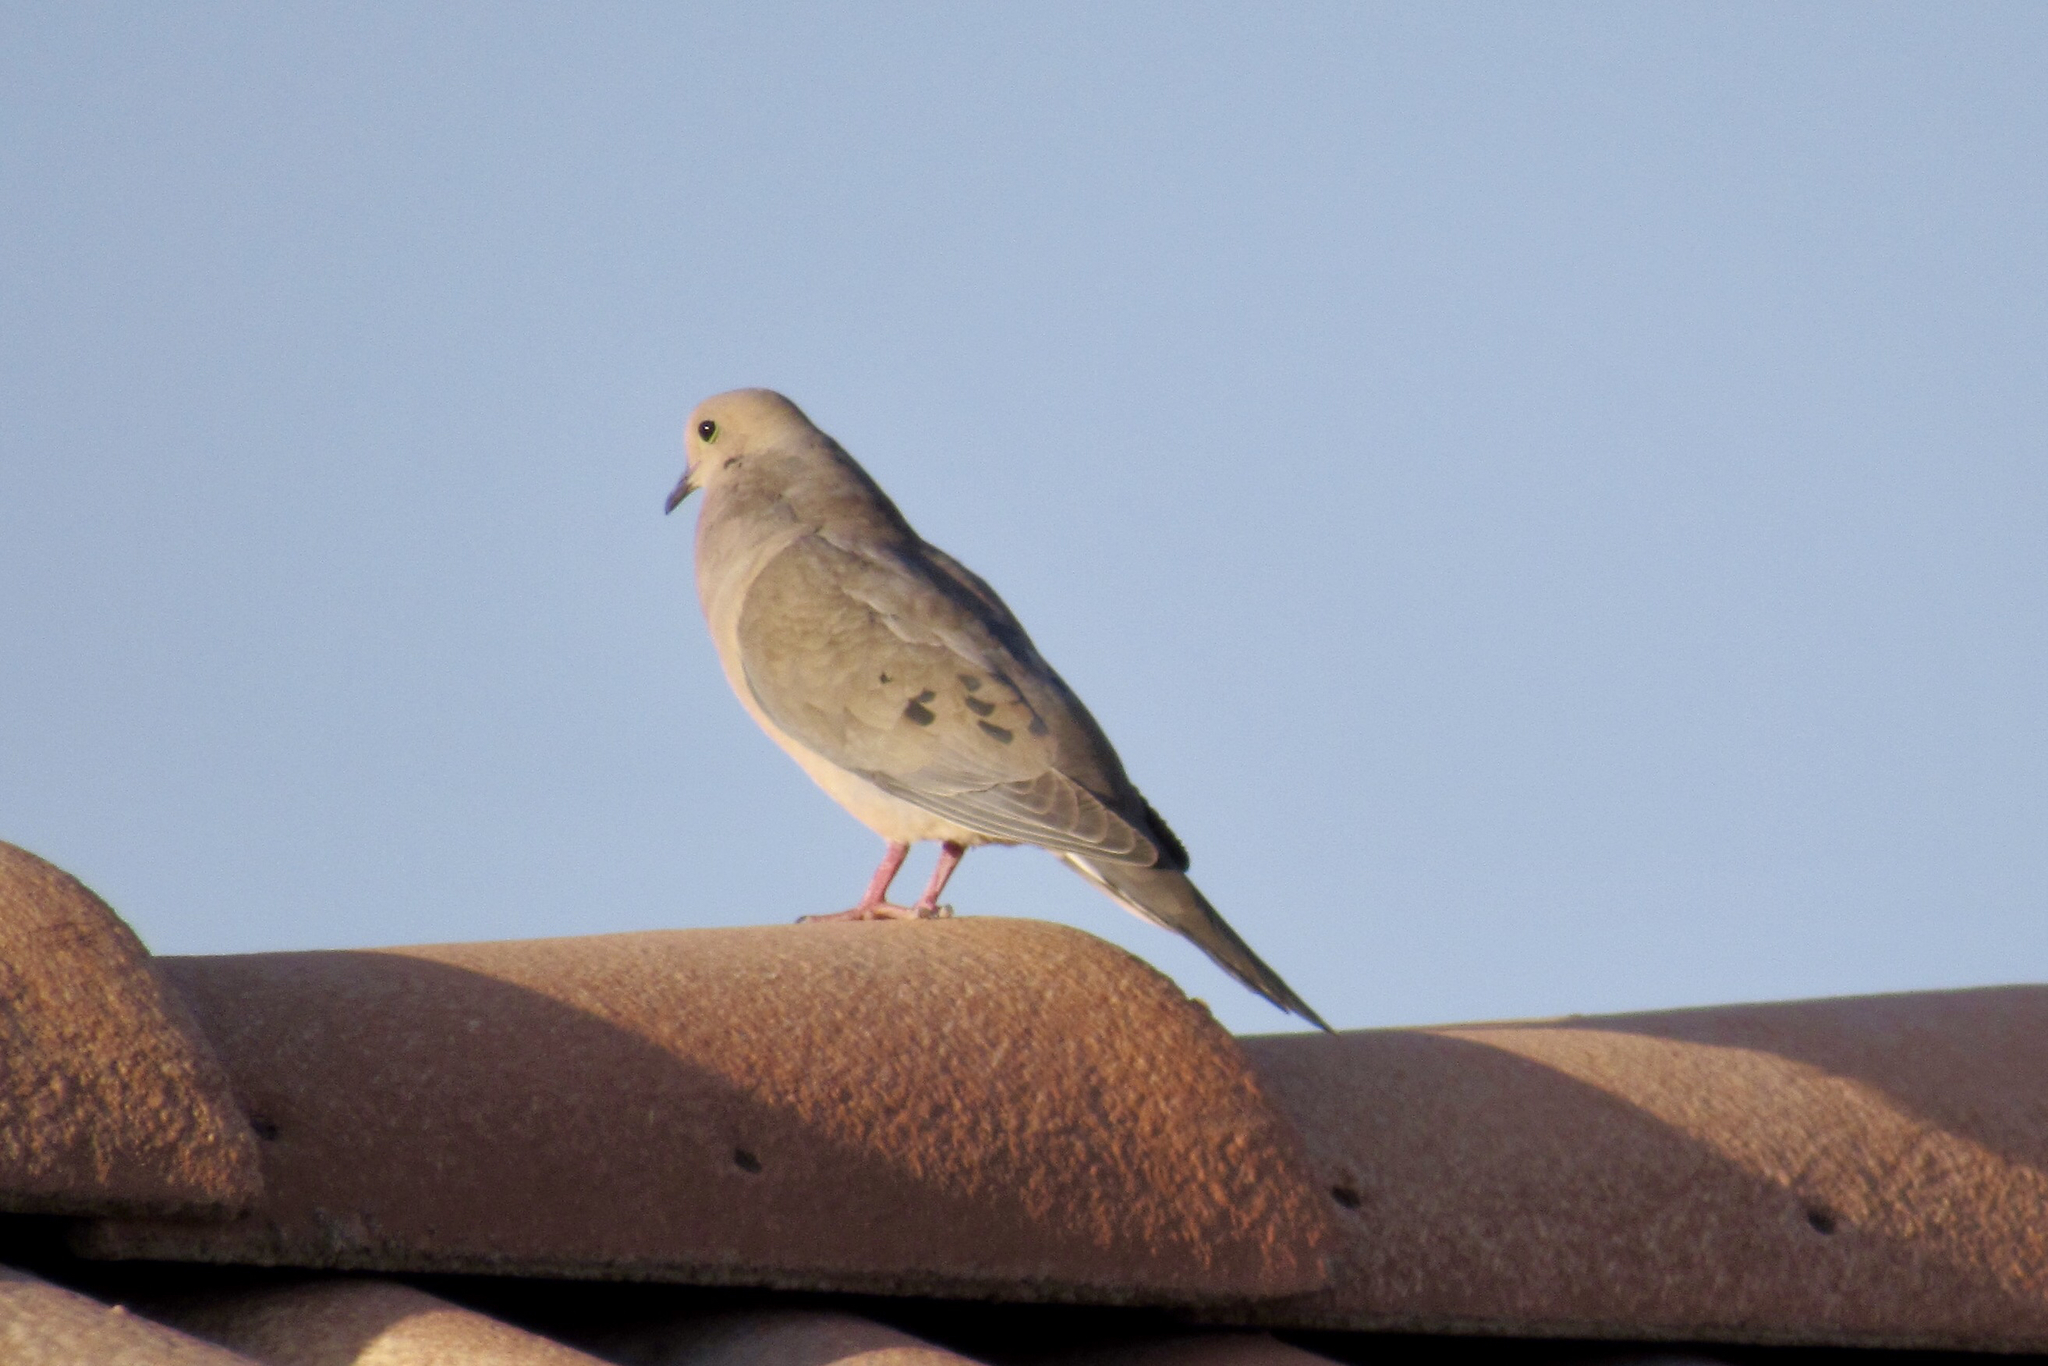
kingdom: Animalia
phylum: Chordata
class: Aves
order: Columbiformes
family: Columbidae
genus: Zenaida
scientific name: Zenaida macroura
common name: Mourning dove
